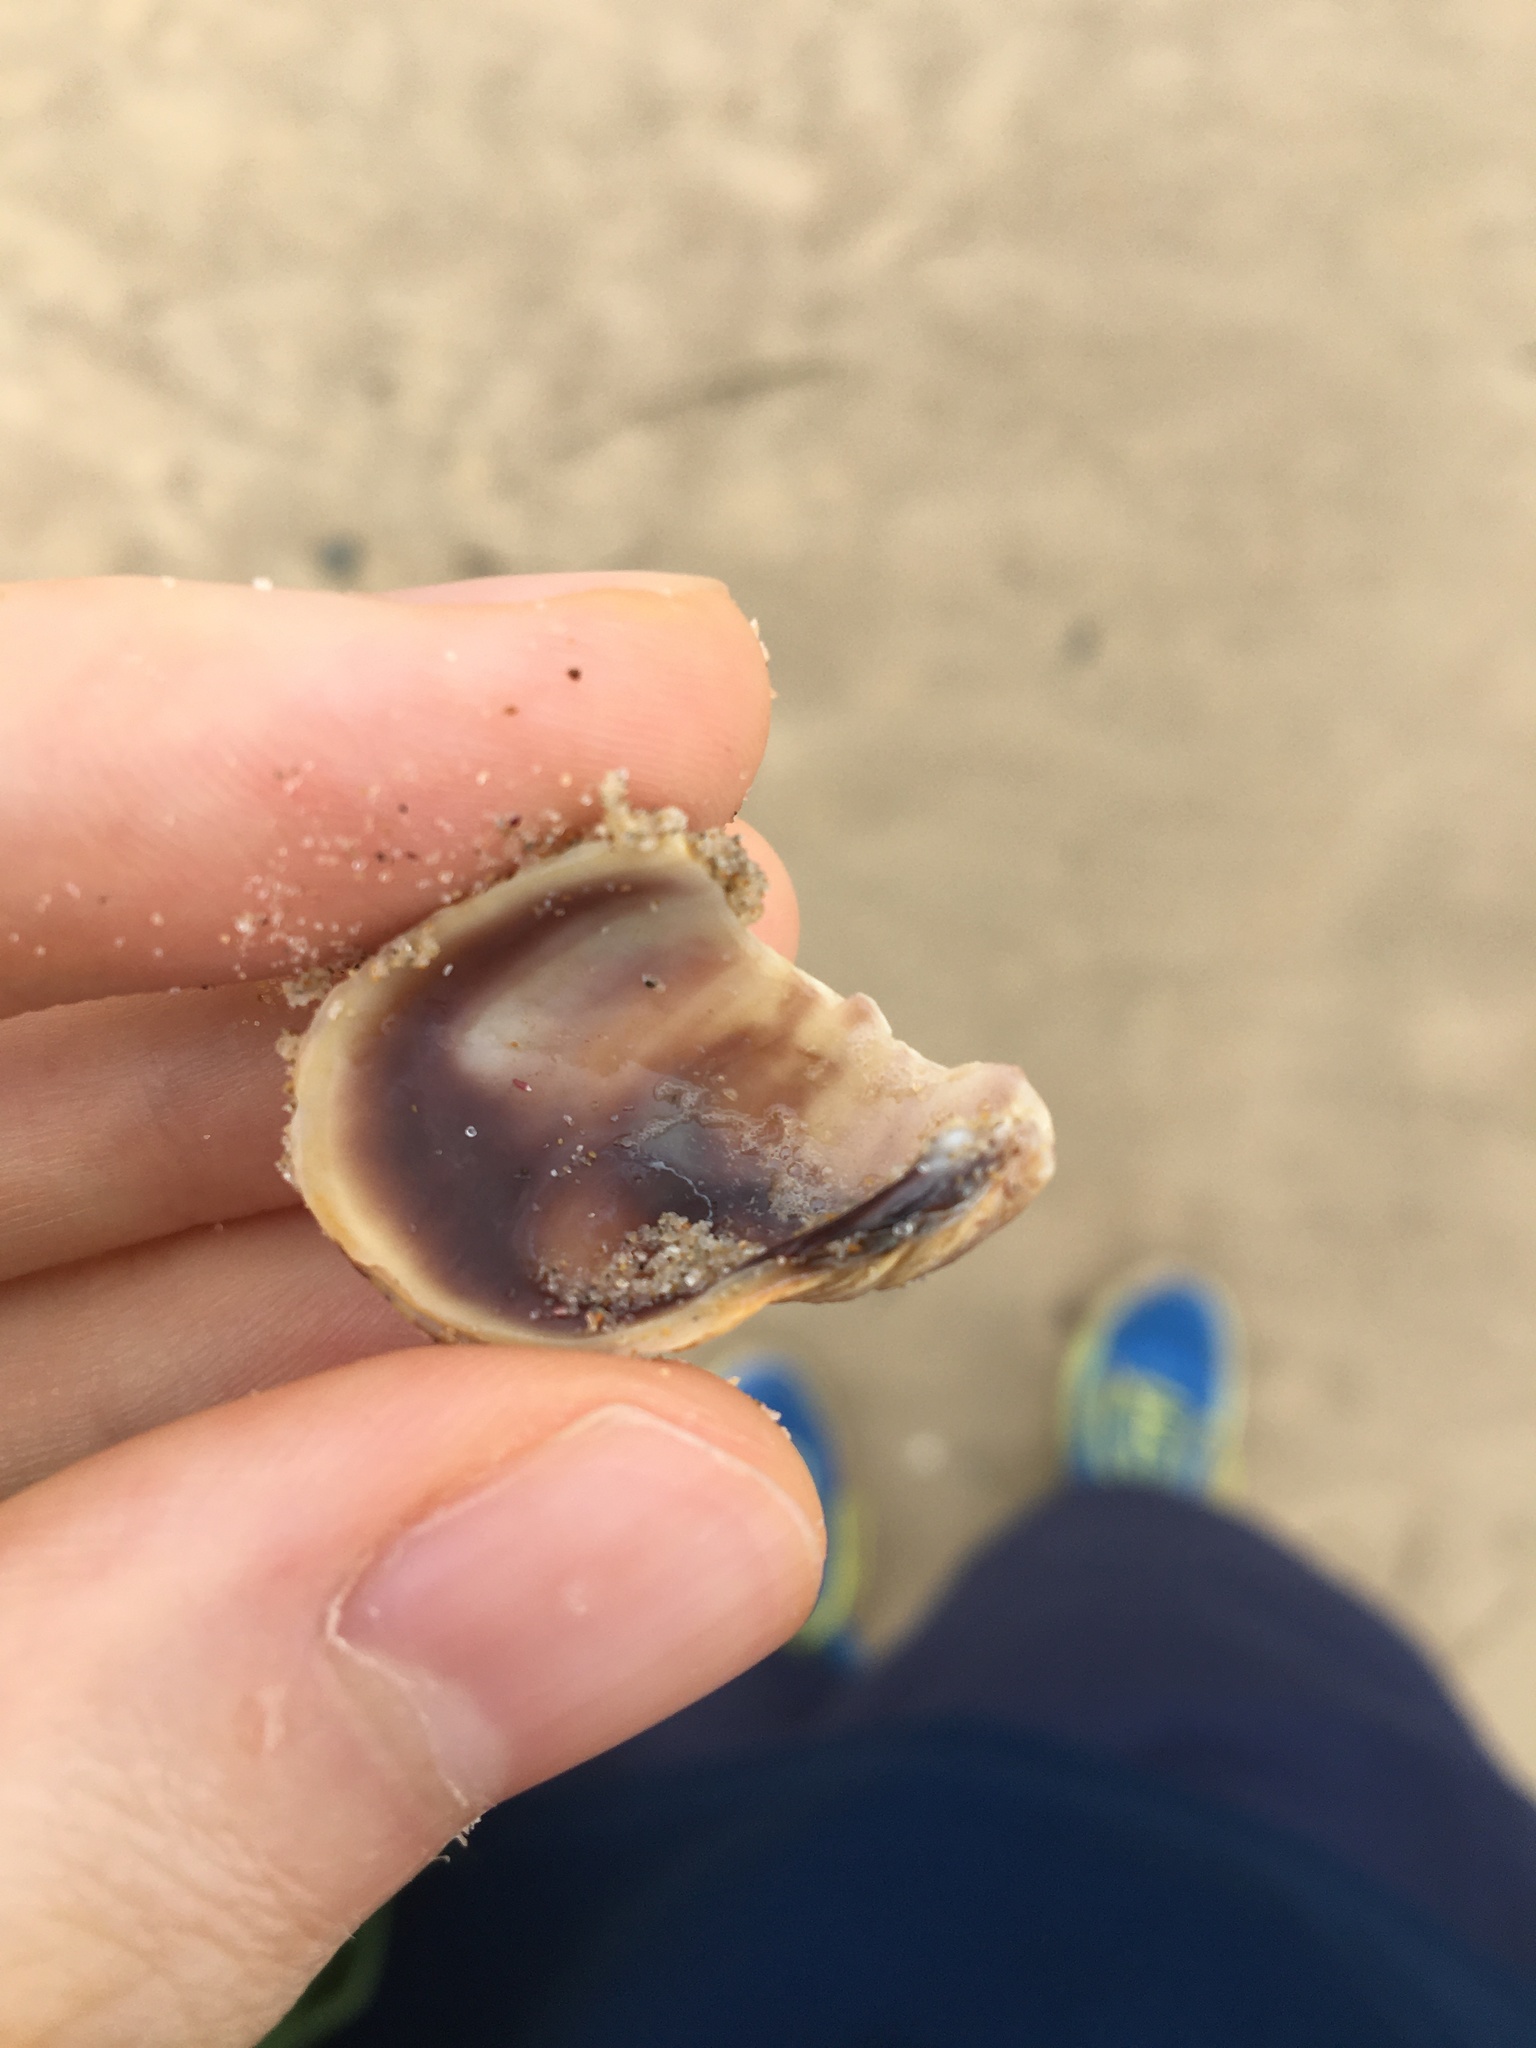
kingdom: Animalia
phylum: Mollusca
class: Bivalvia
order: Venerida
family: Veneridae
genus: Irus
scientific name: Irus crenatus
